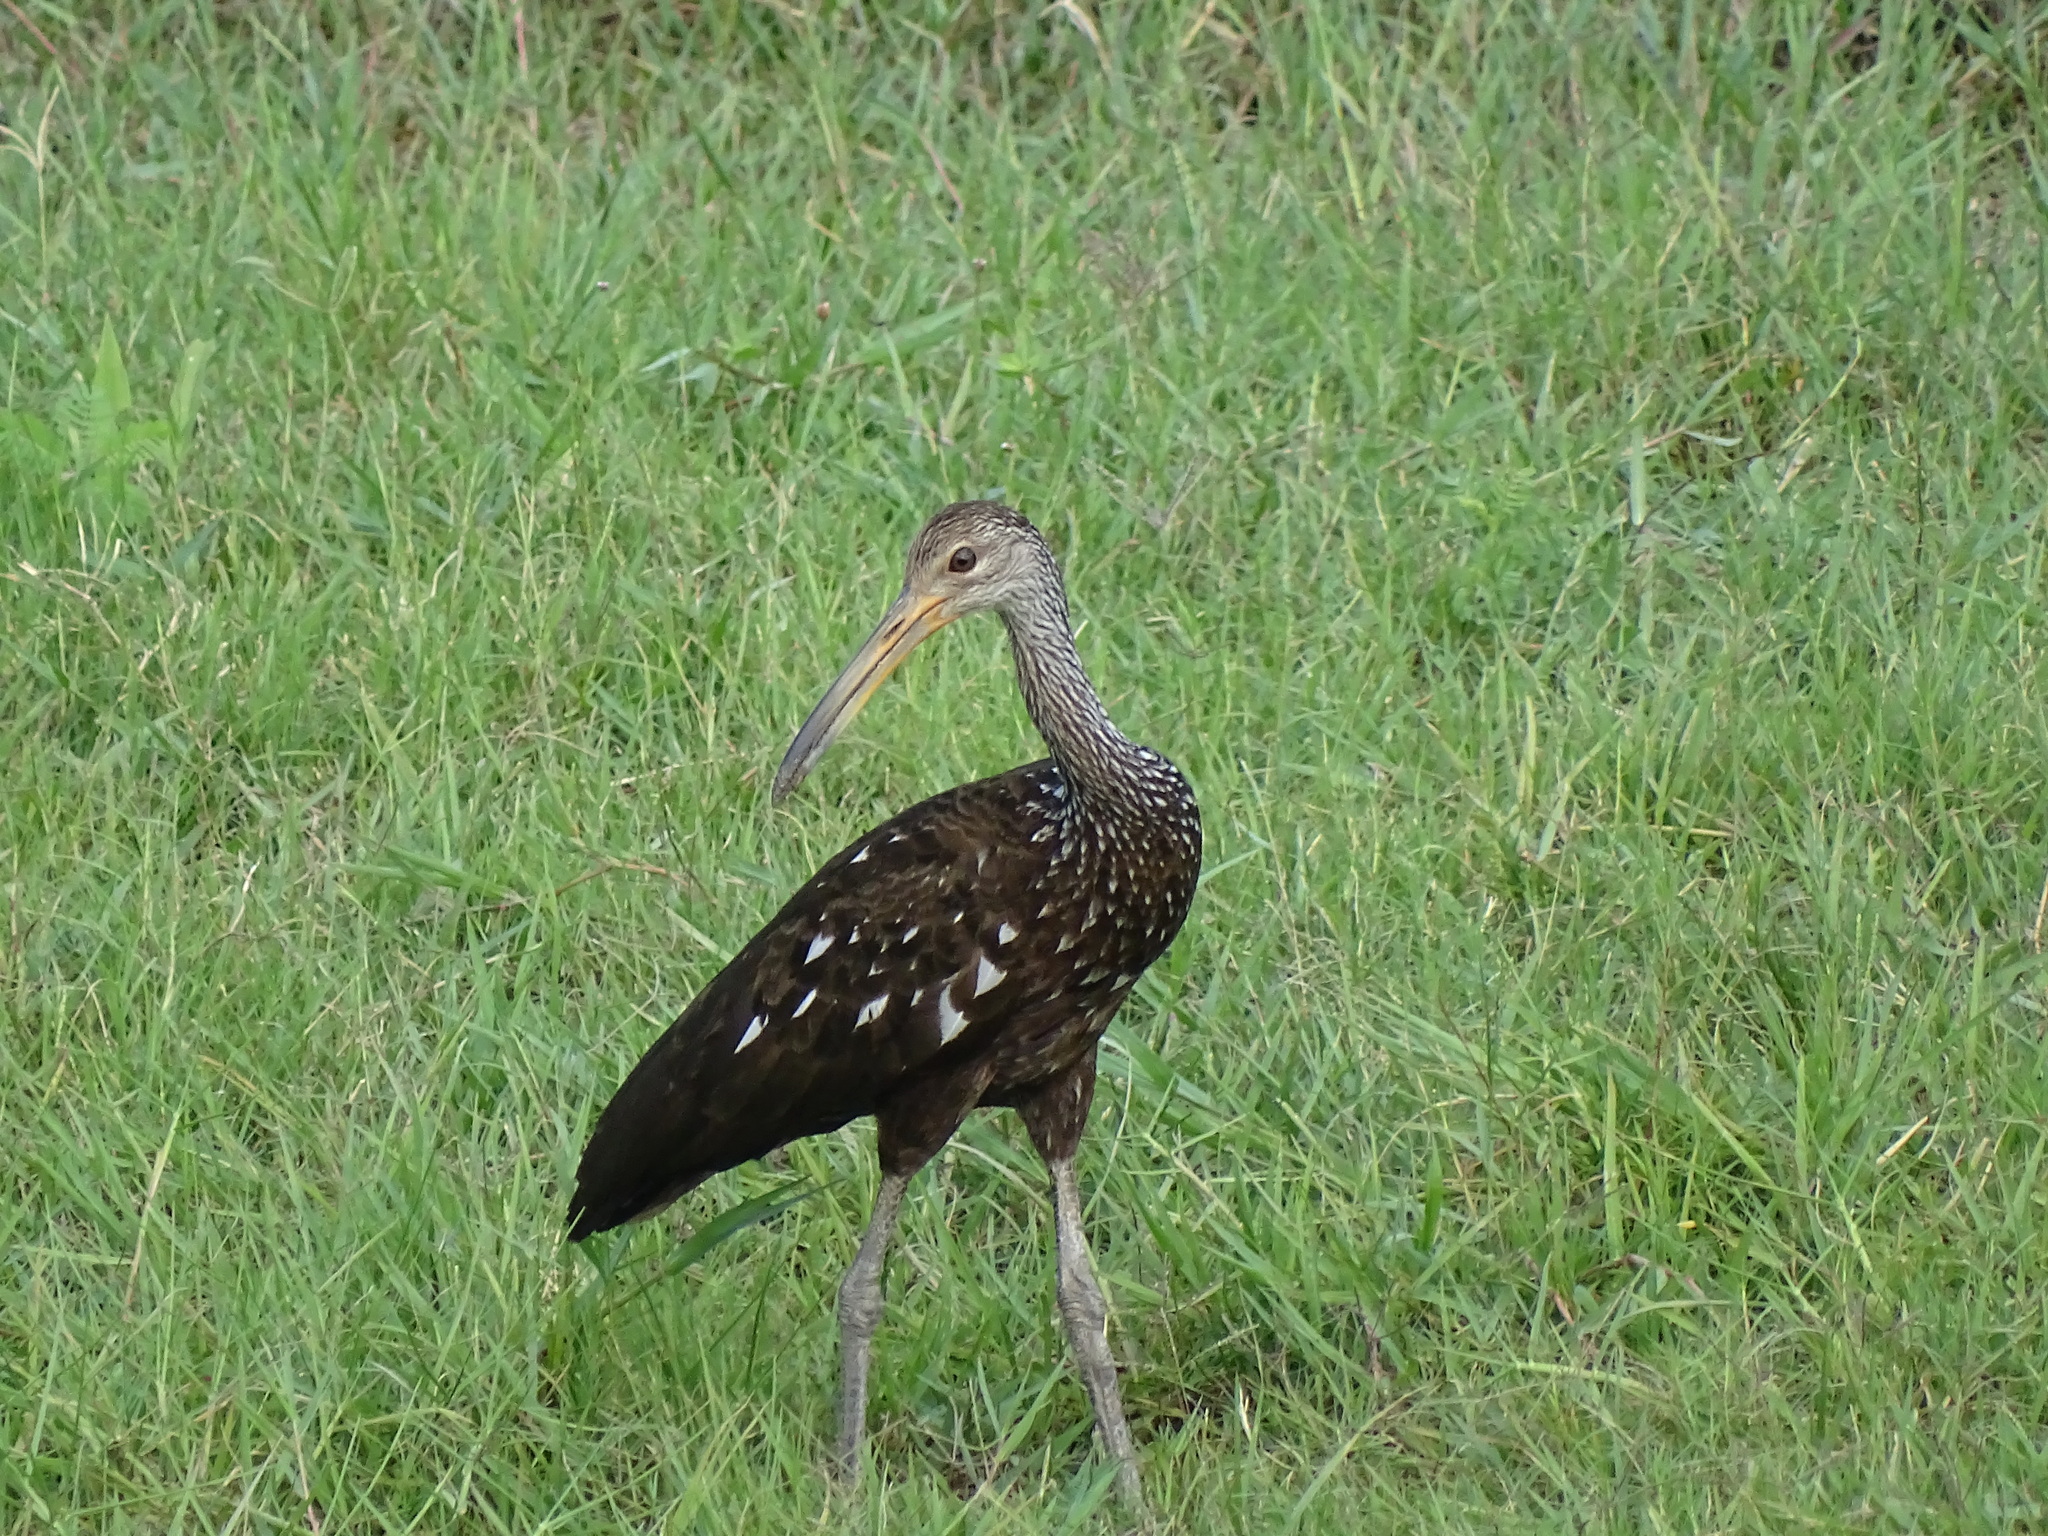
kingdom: Animalia
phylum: Chordata
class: Aves
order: Gruiformes
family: Aramidae
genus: Aramus
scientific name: Aramus guarauna
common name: Limpkin
